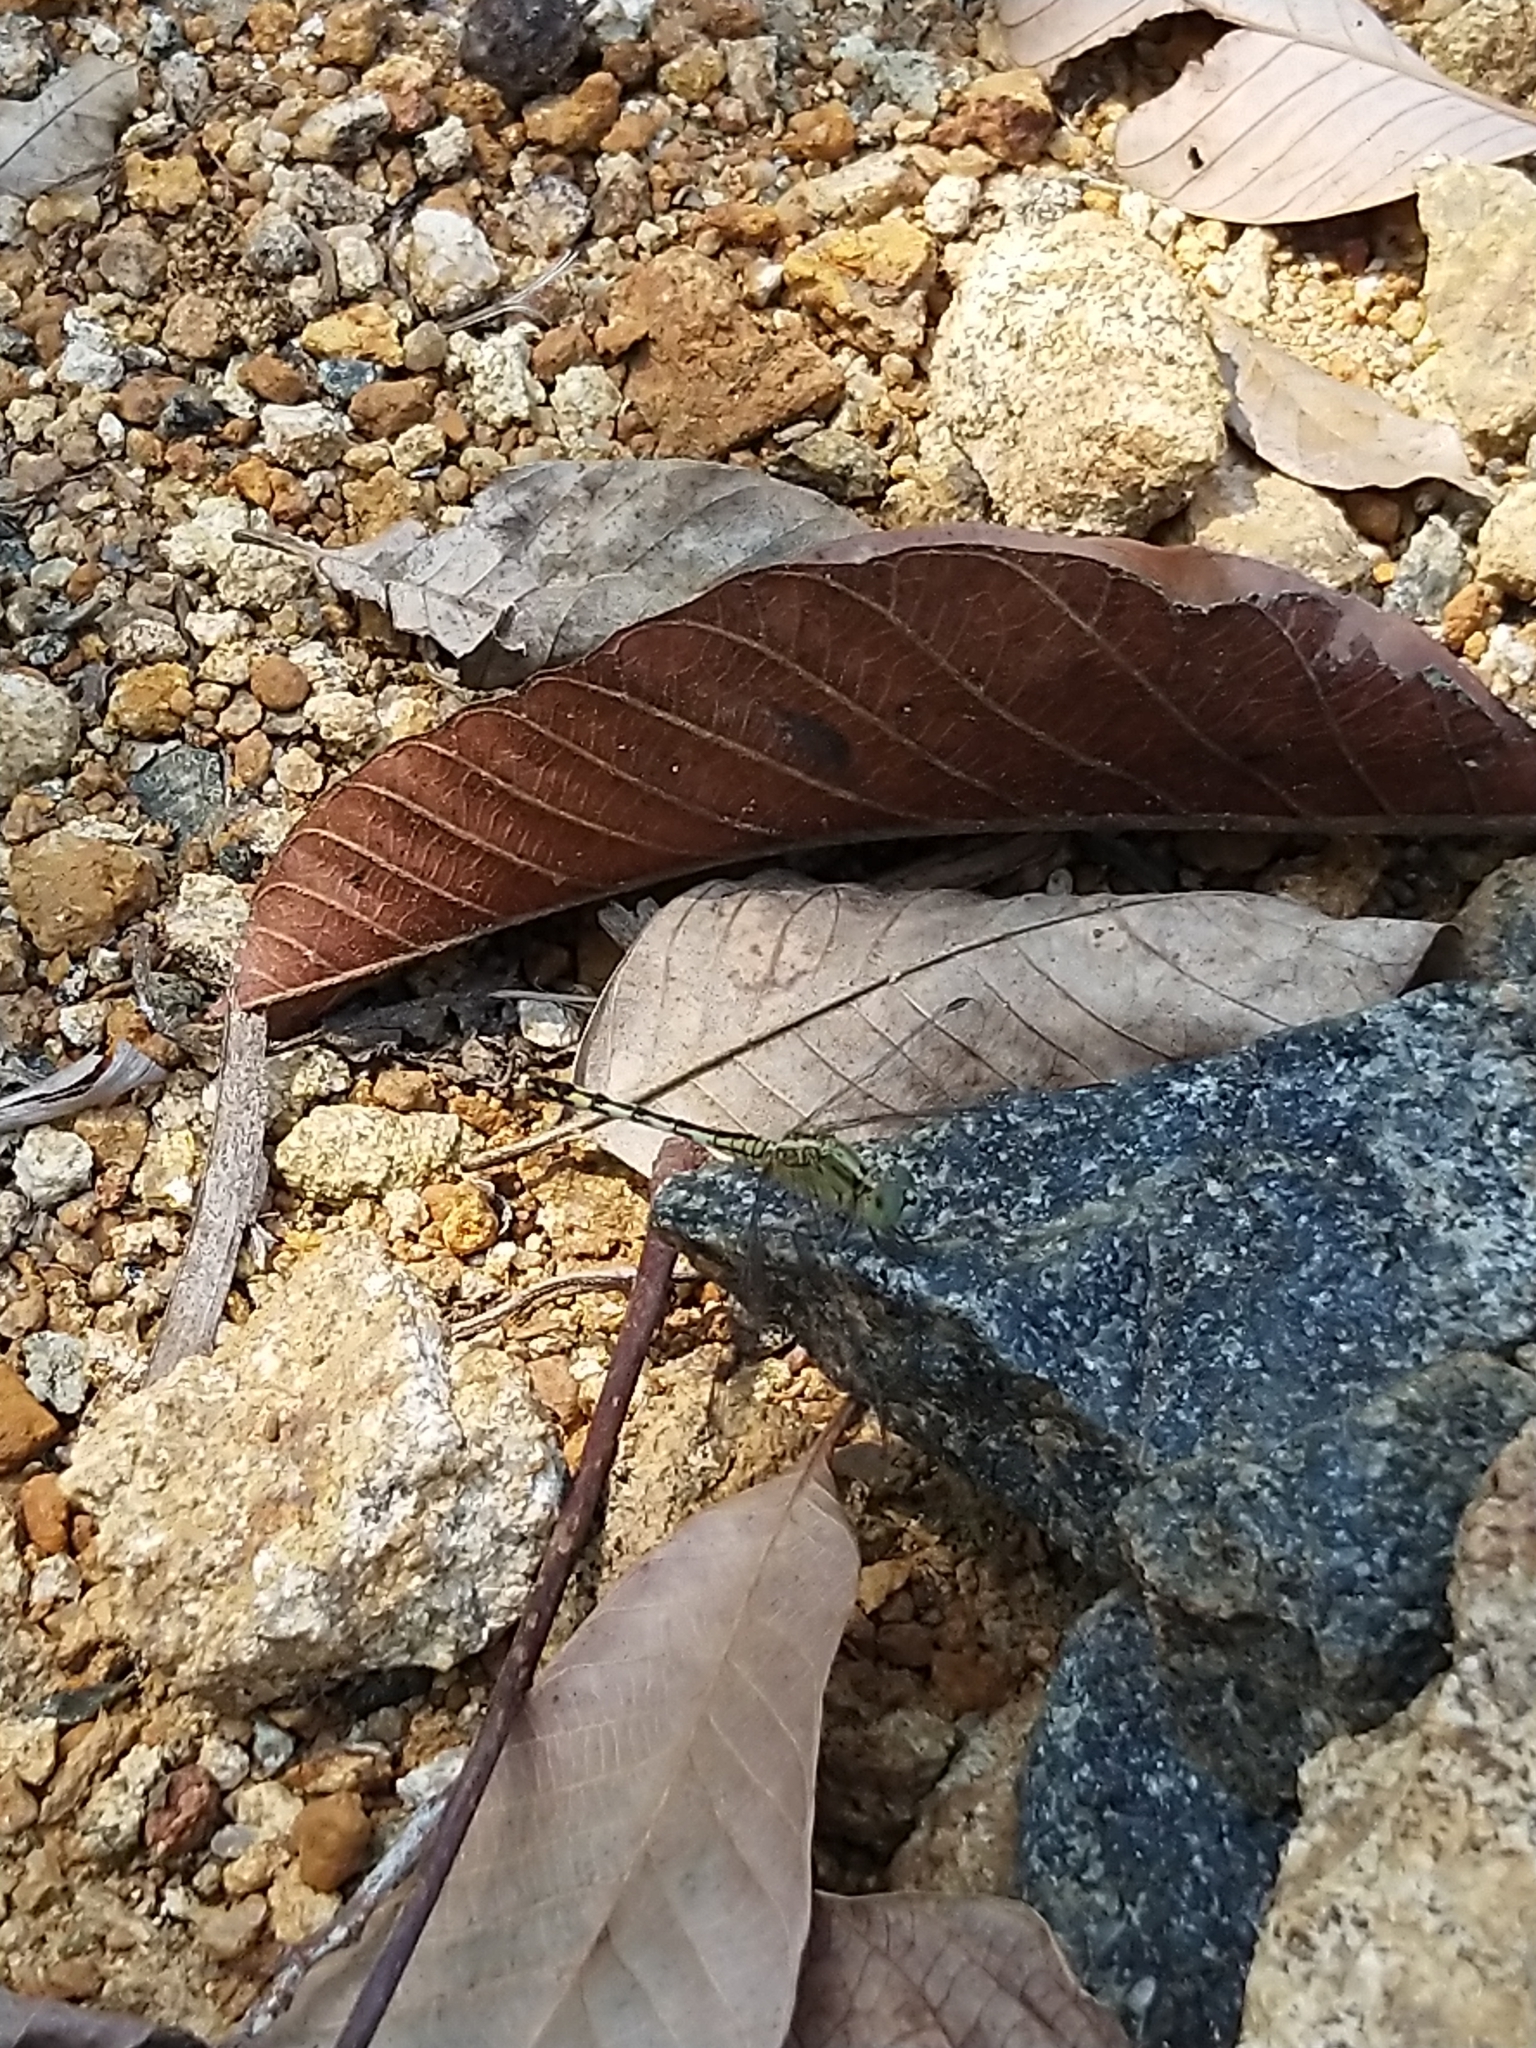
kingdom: Animalia
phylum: Arthropoda
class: Insecta
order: Odonata
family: Libellulidae
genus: Diplacodes
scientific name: Diplacodes trivialis
